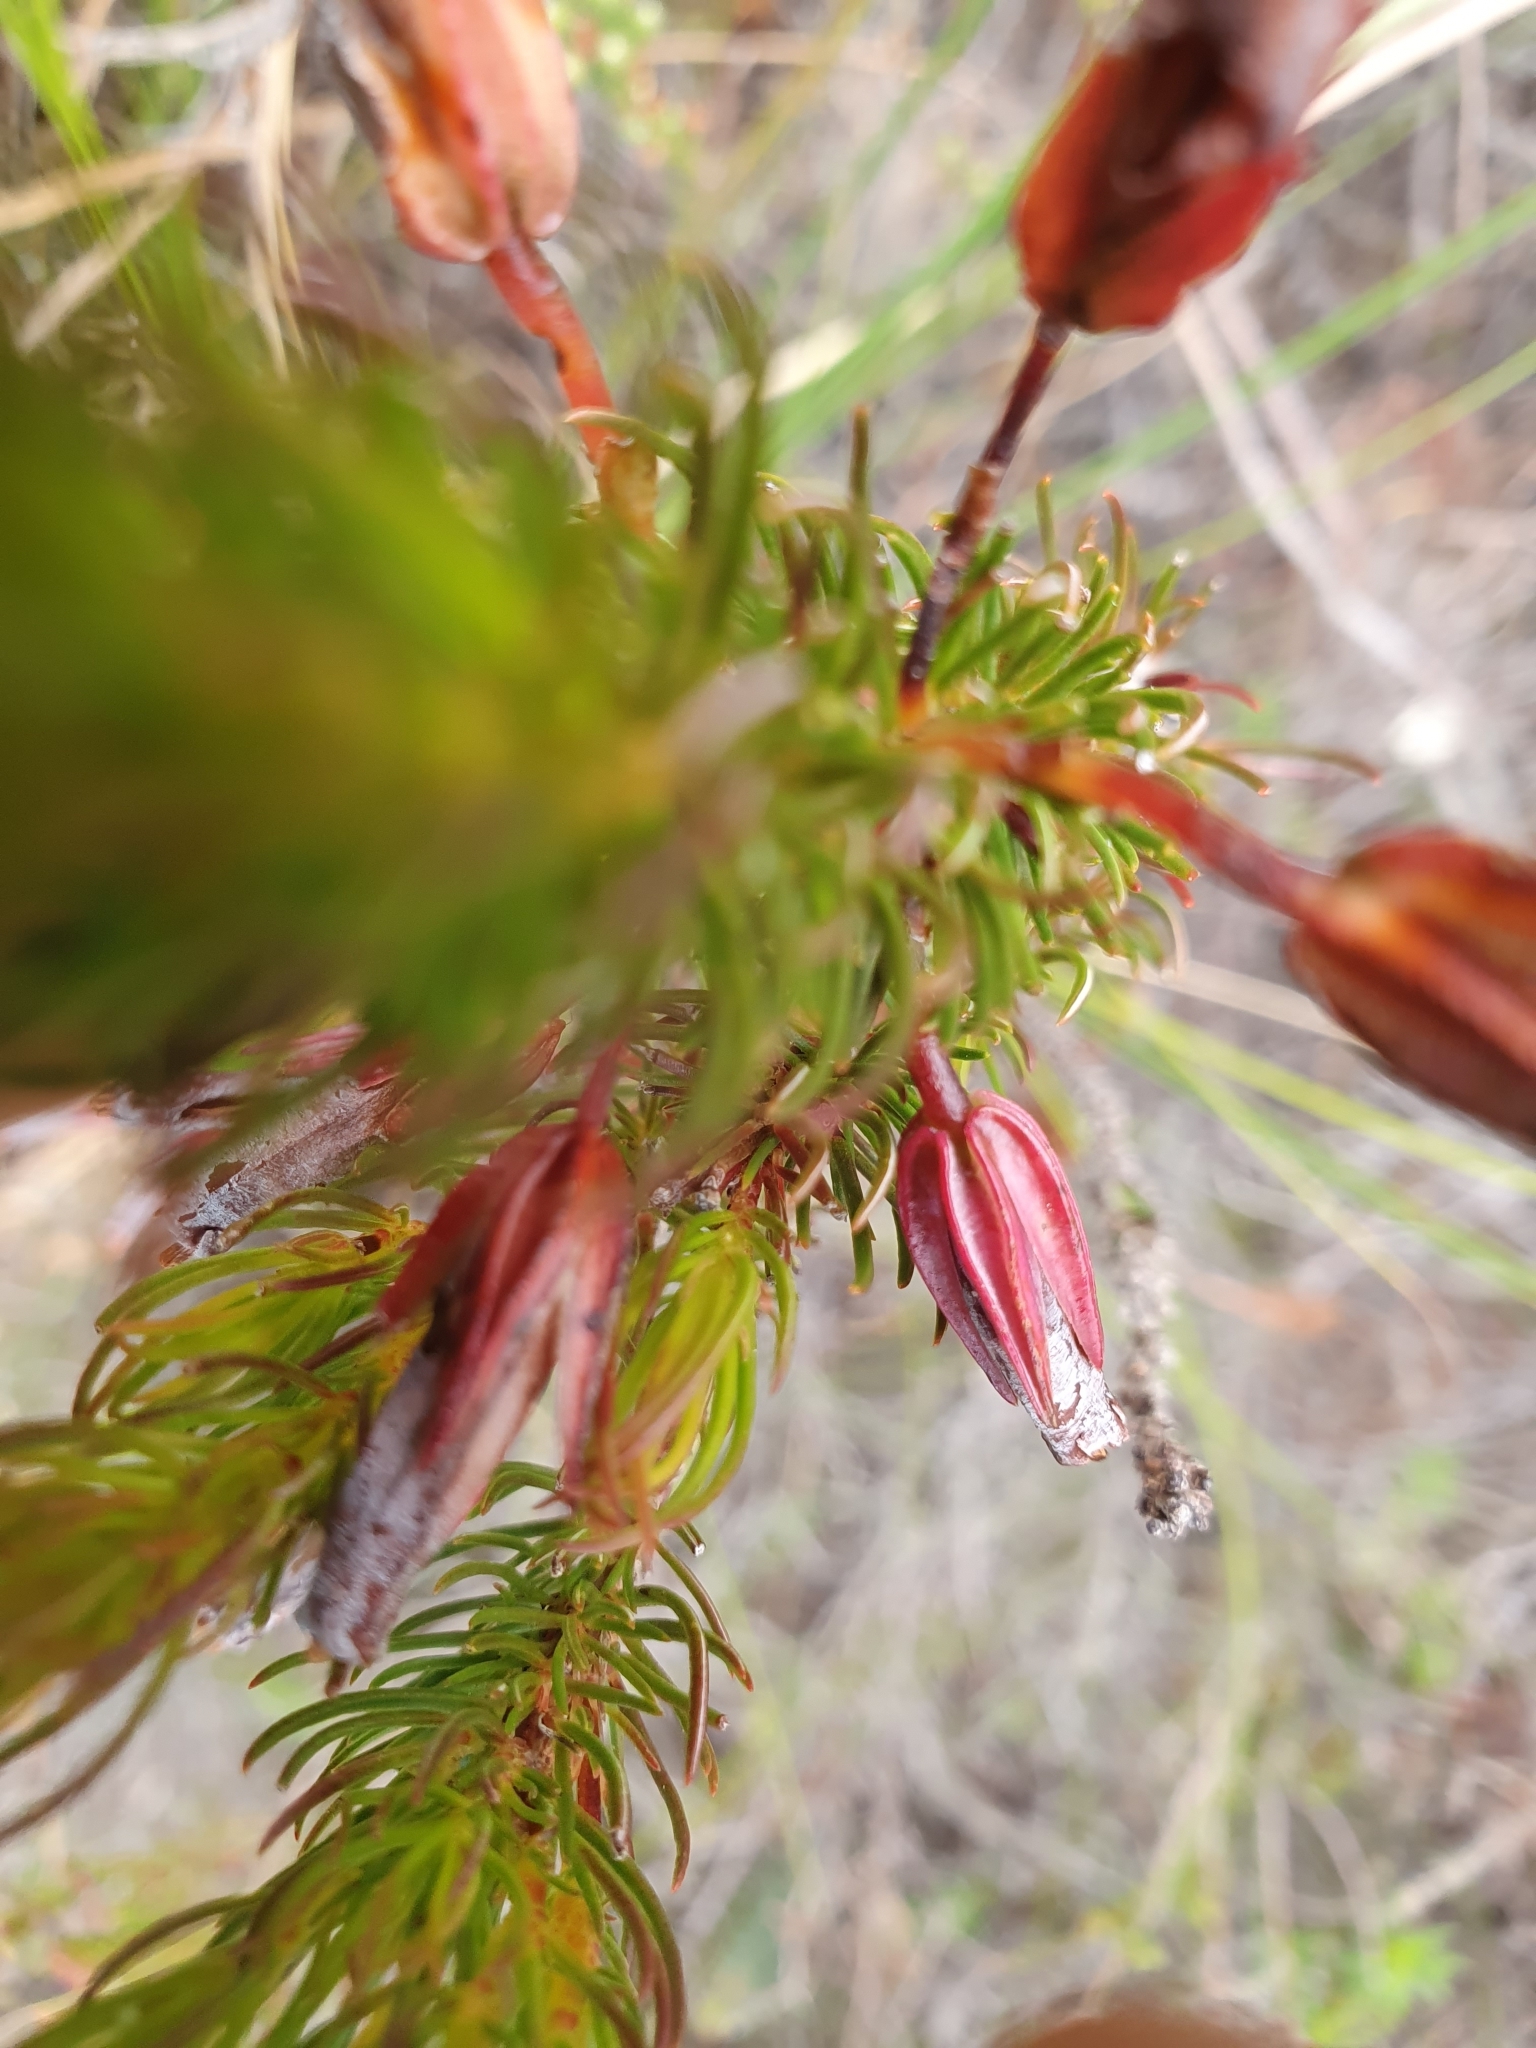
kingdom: Plantae
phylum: Tracheophyta
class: Magnoliopsida
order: Ericales
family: Ericaceae
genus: Erica
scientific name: Erica plukenetii
